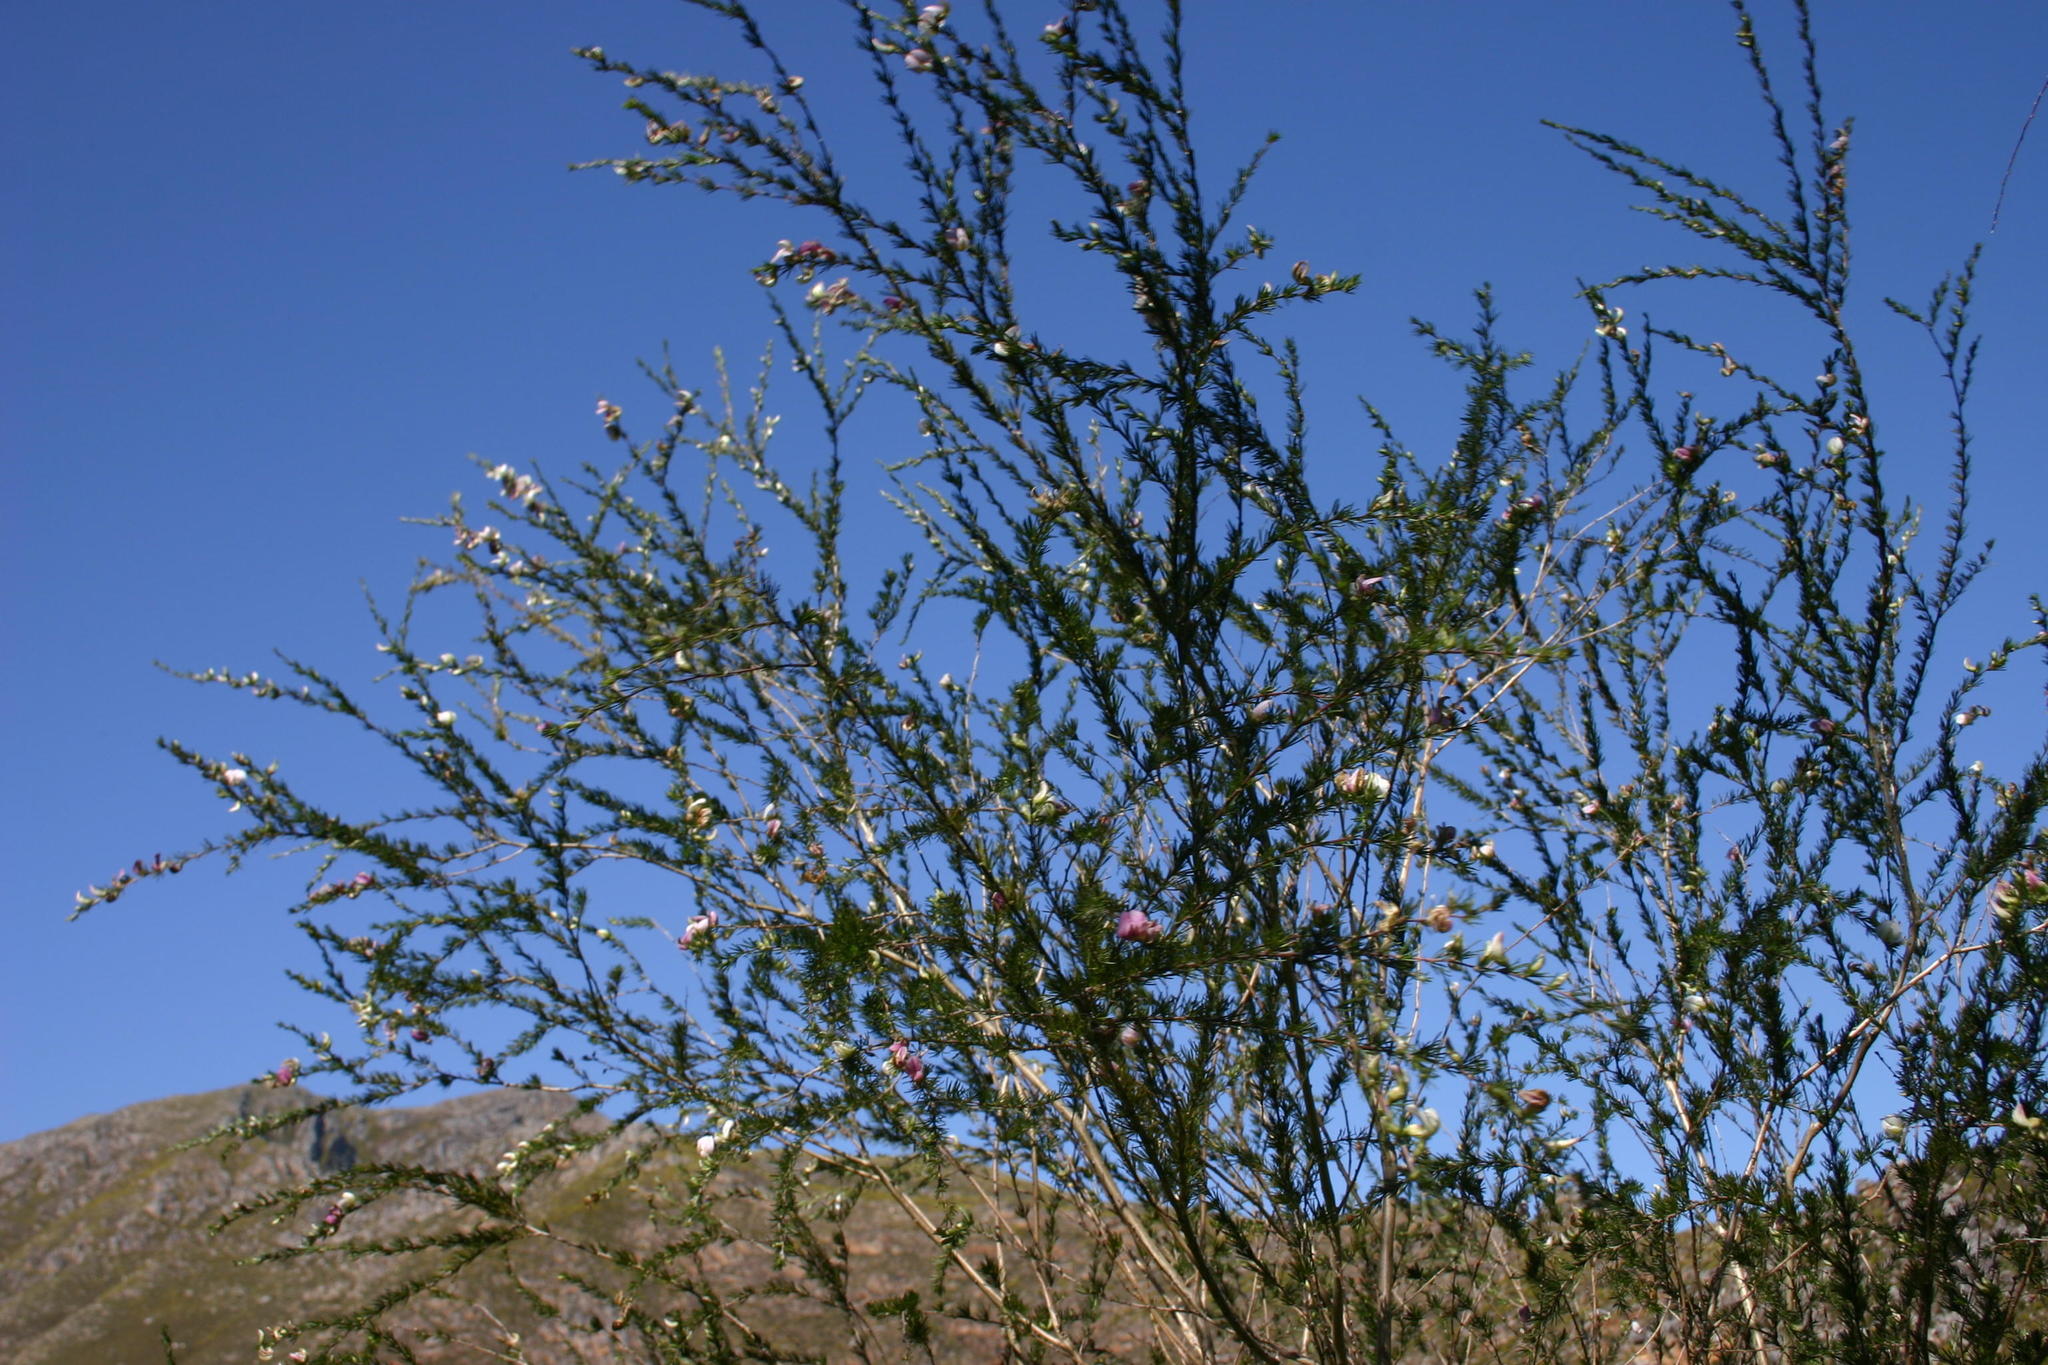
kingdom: Plantae
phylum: Tracheophyta
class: Magnoliopsida
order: Fabales
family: Fabaceae
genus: Aspalathus
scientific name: Aspalathus willdenowiana
